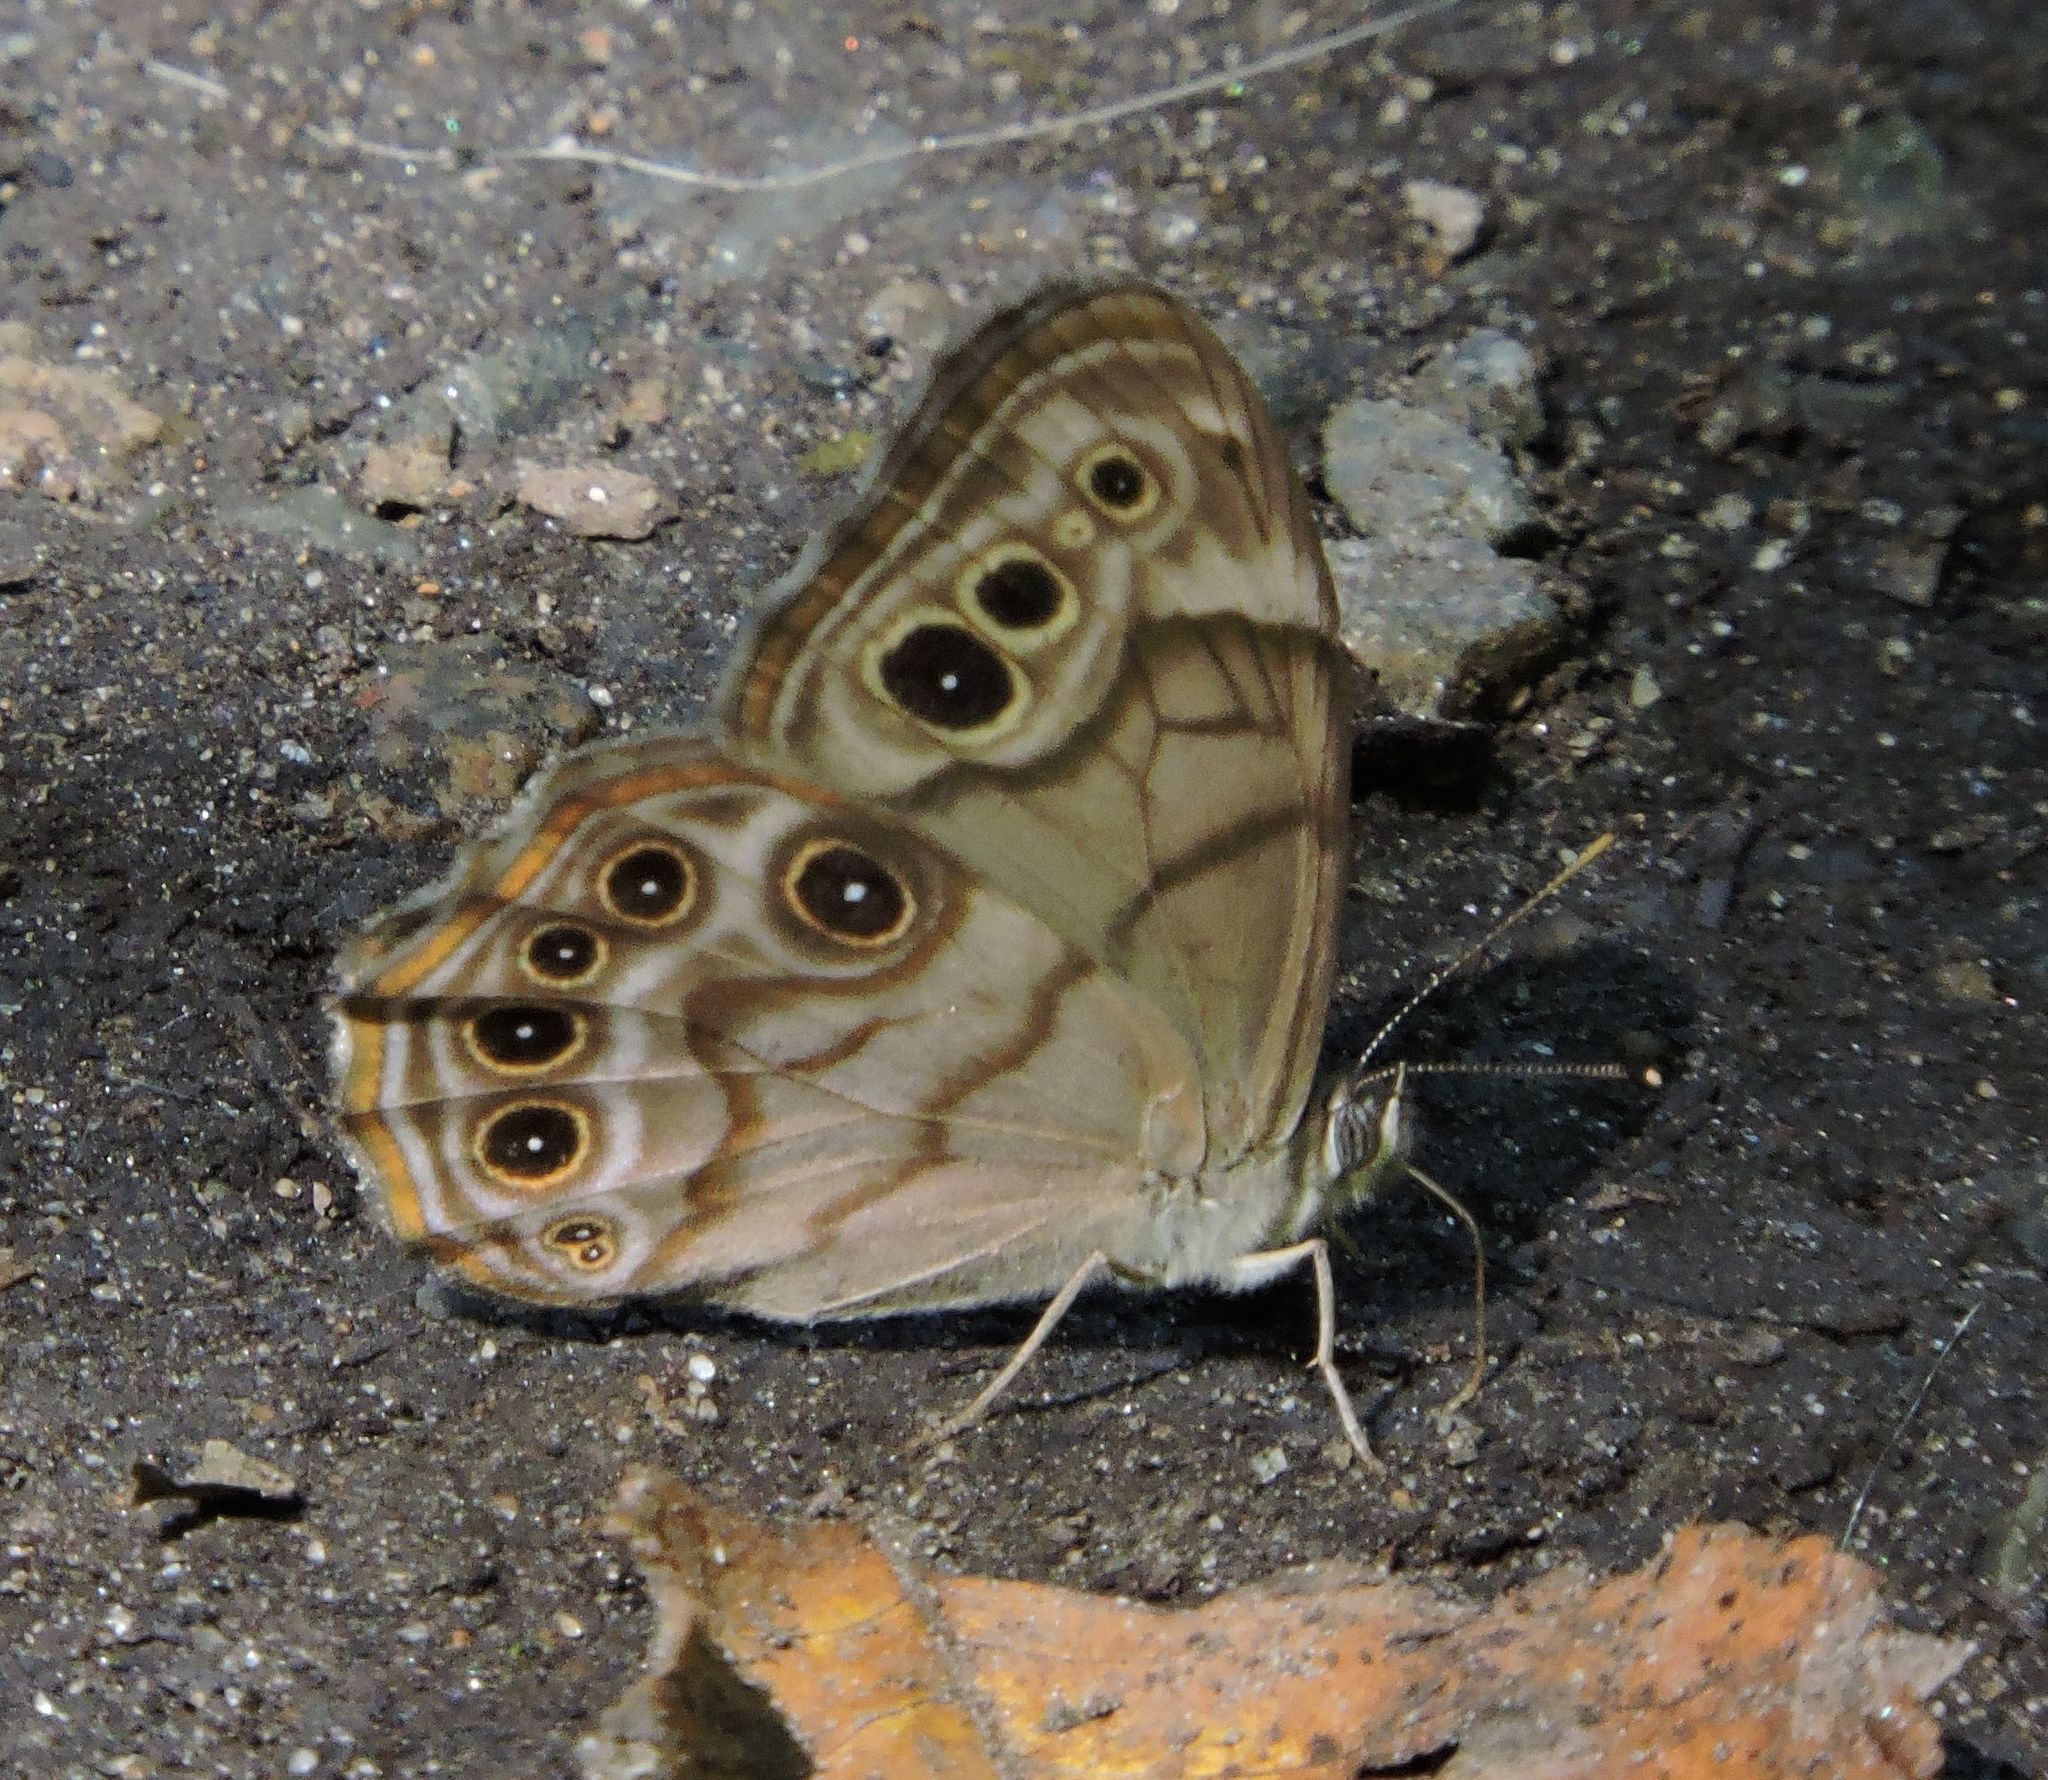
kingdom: Animalia
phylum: Arthropoda
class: Insecta
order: Lepidoptera
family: Nymphalidae
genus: Lethe
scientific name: Lethe anthedon
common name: Northern pearly-eye
